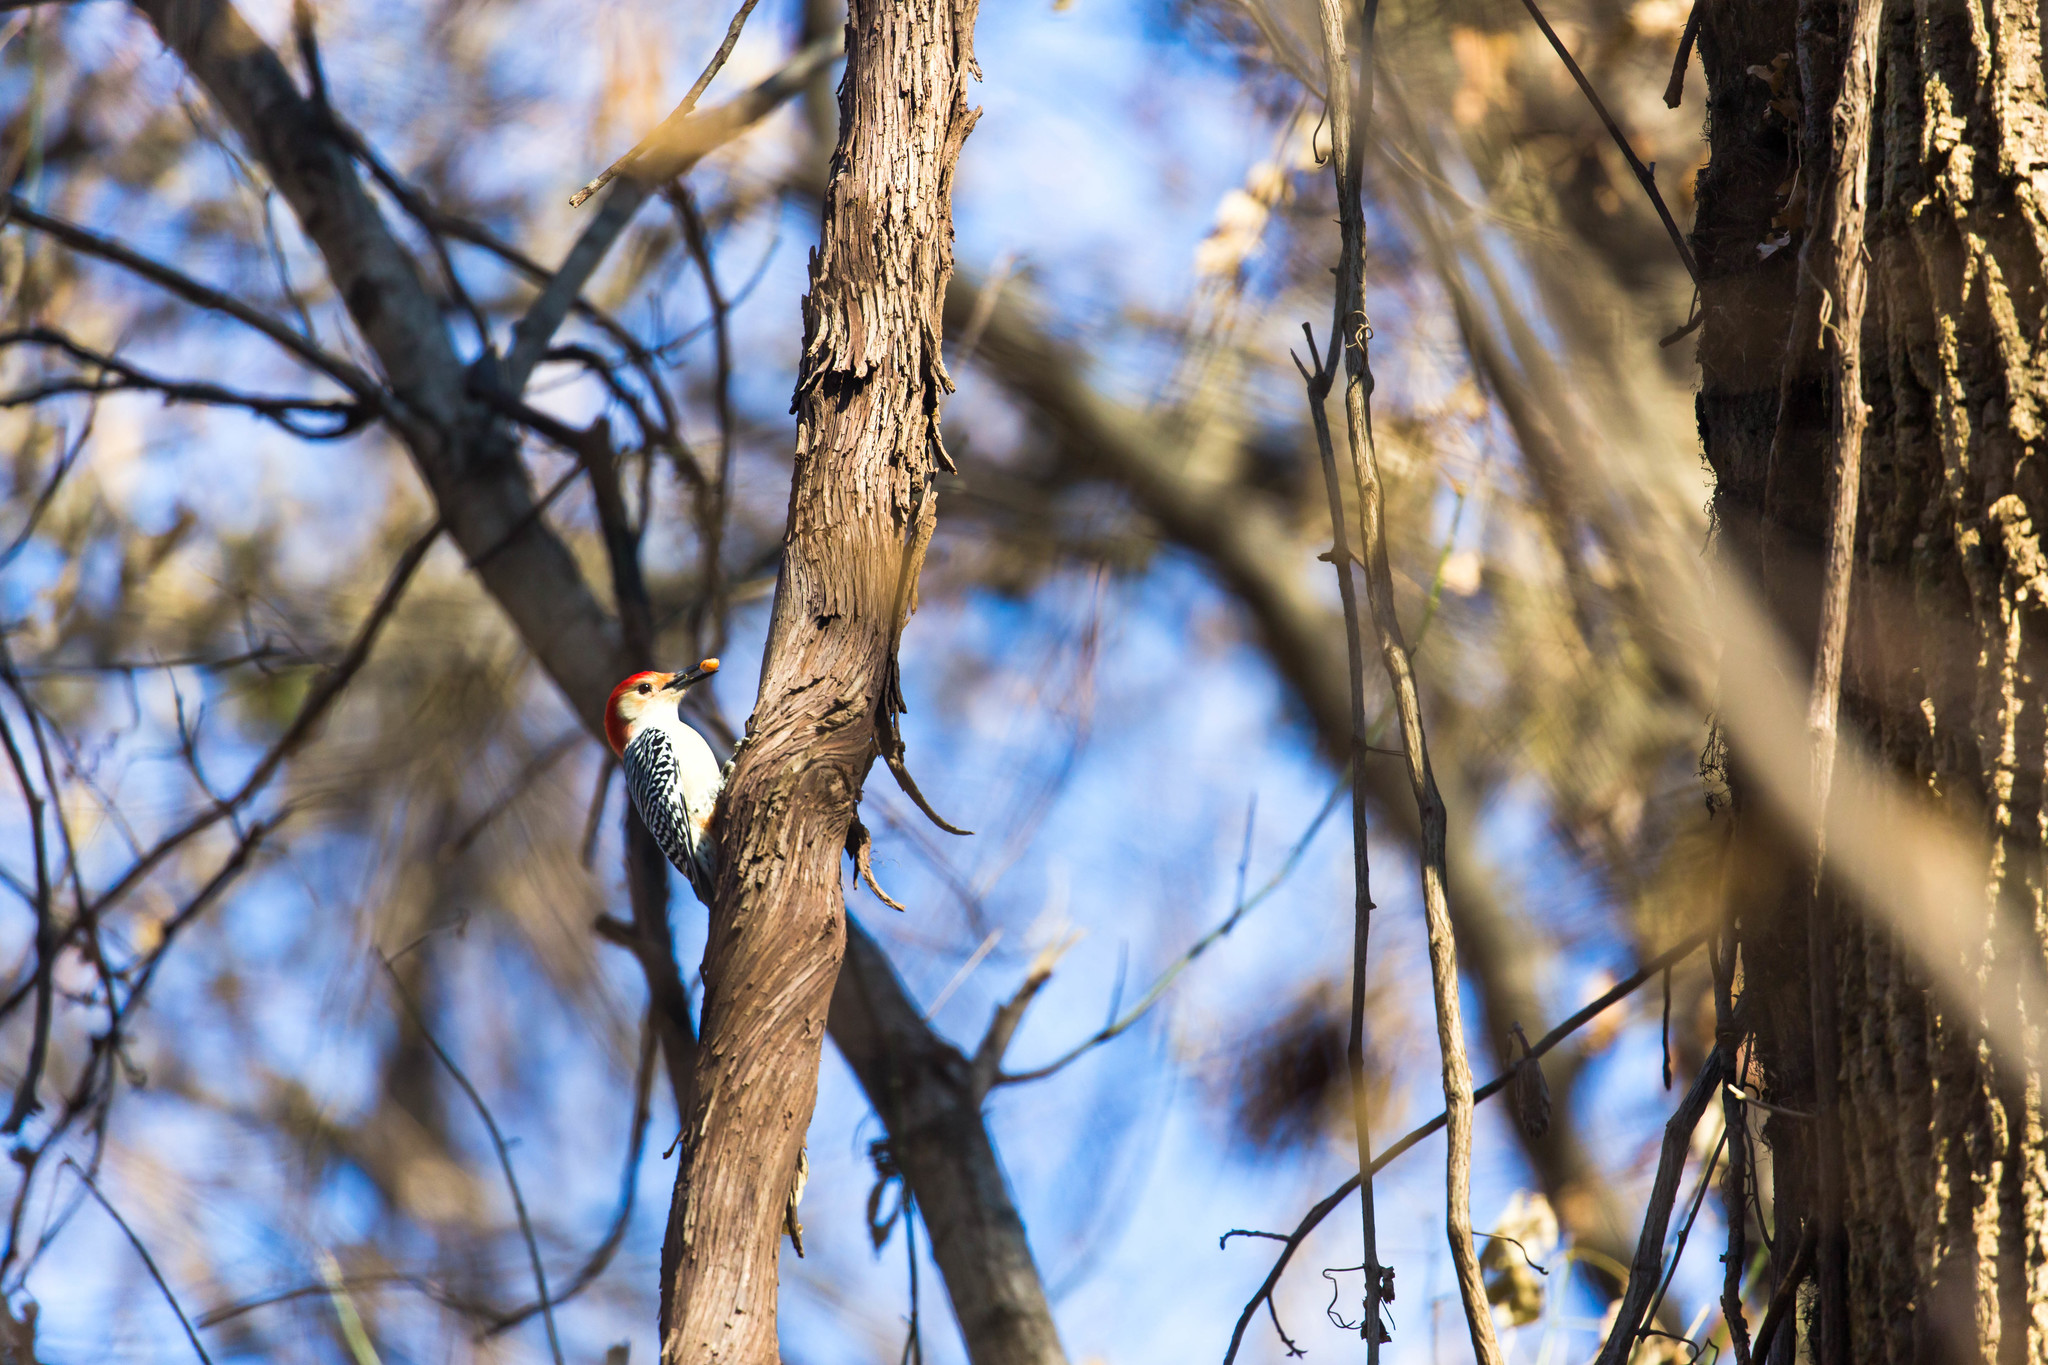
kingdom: Animalia
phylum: Chordata
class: Aves
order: Piciformes
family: Picidae
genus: Melanerpes
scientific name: Melanerpes carolinus
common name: Red-bellied woodpecker
